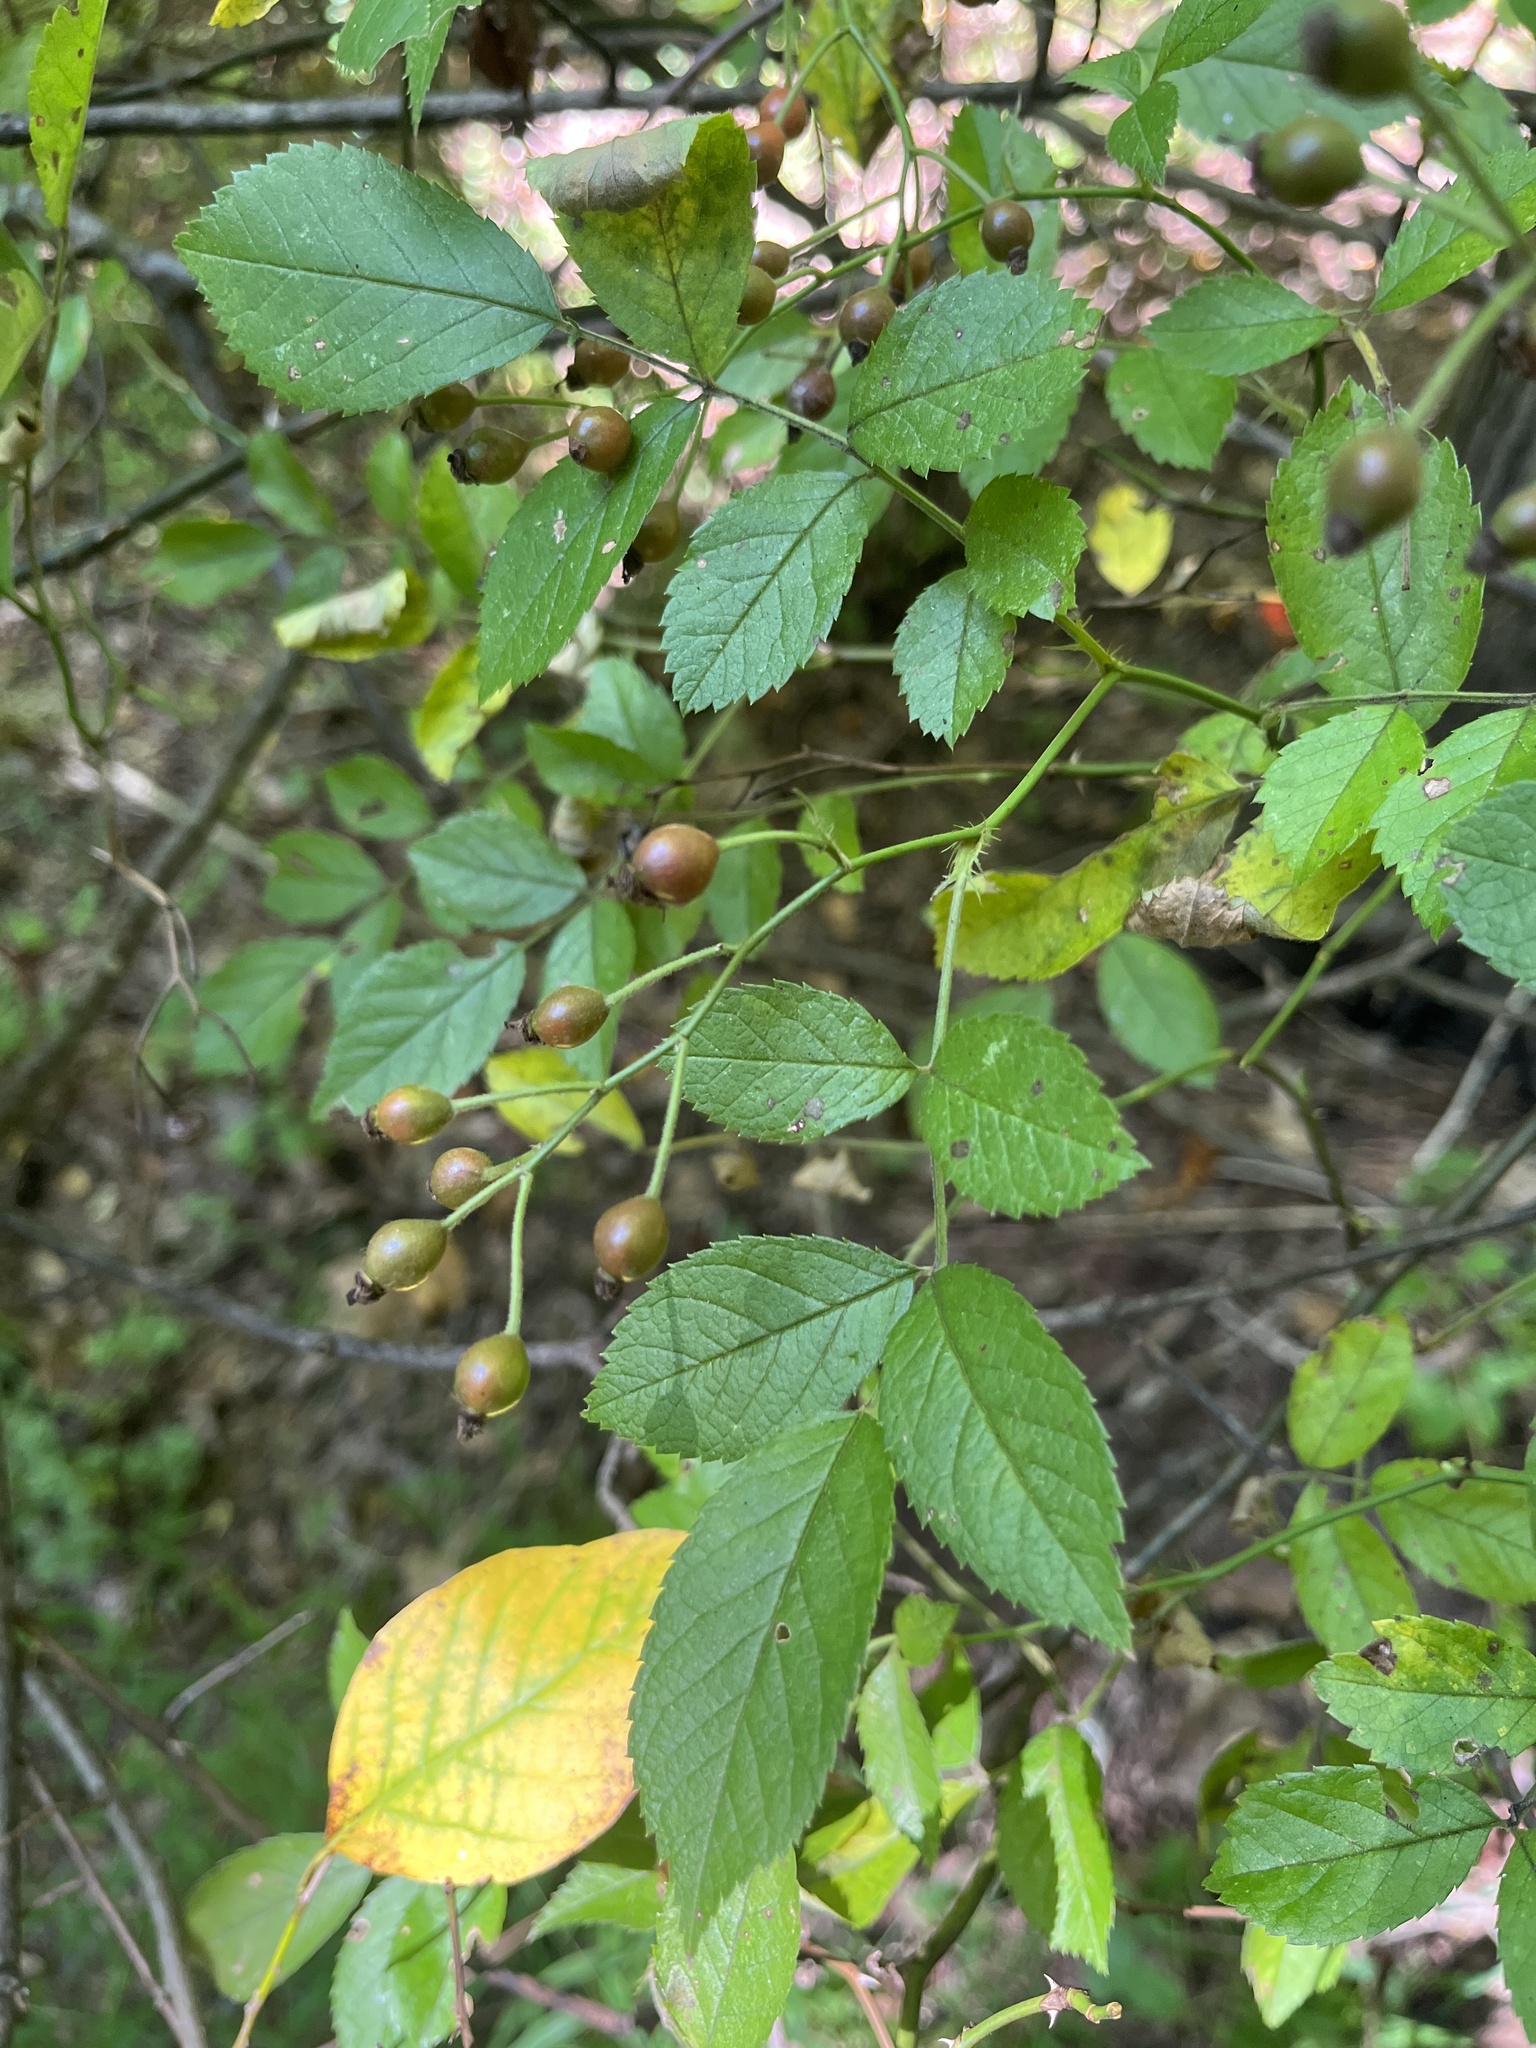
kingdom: Plantae
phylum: Tracheophyta
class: Magnoliopsida
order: Rosales
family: Rosaceae
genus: Rosa
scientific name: Rosa multiflora
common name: Multiflora rose
